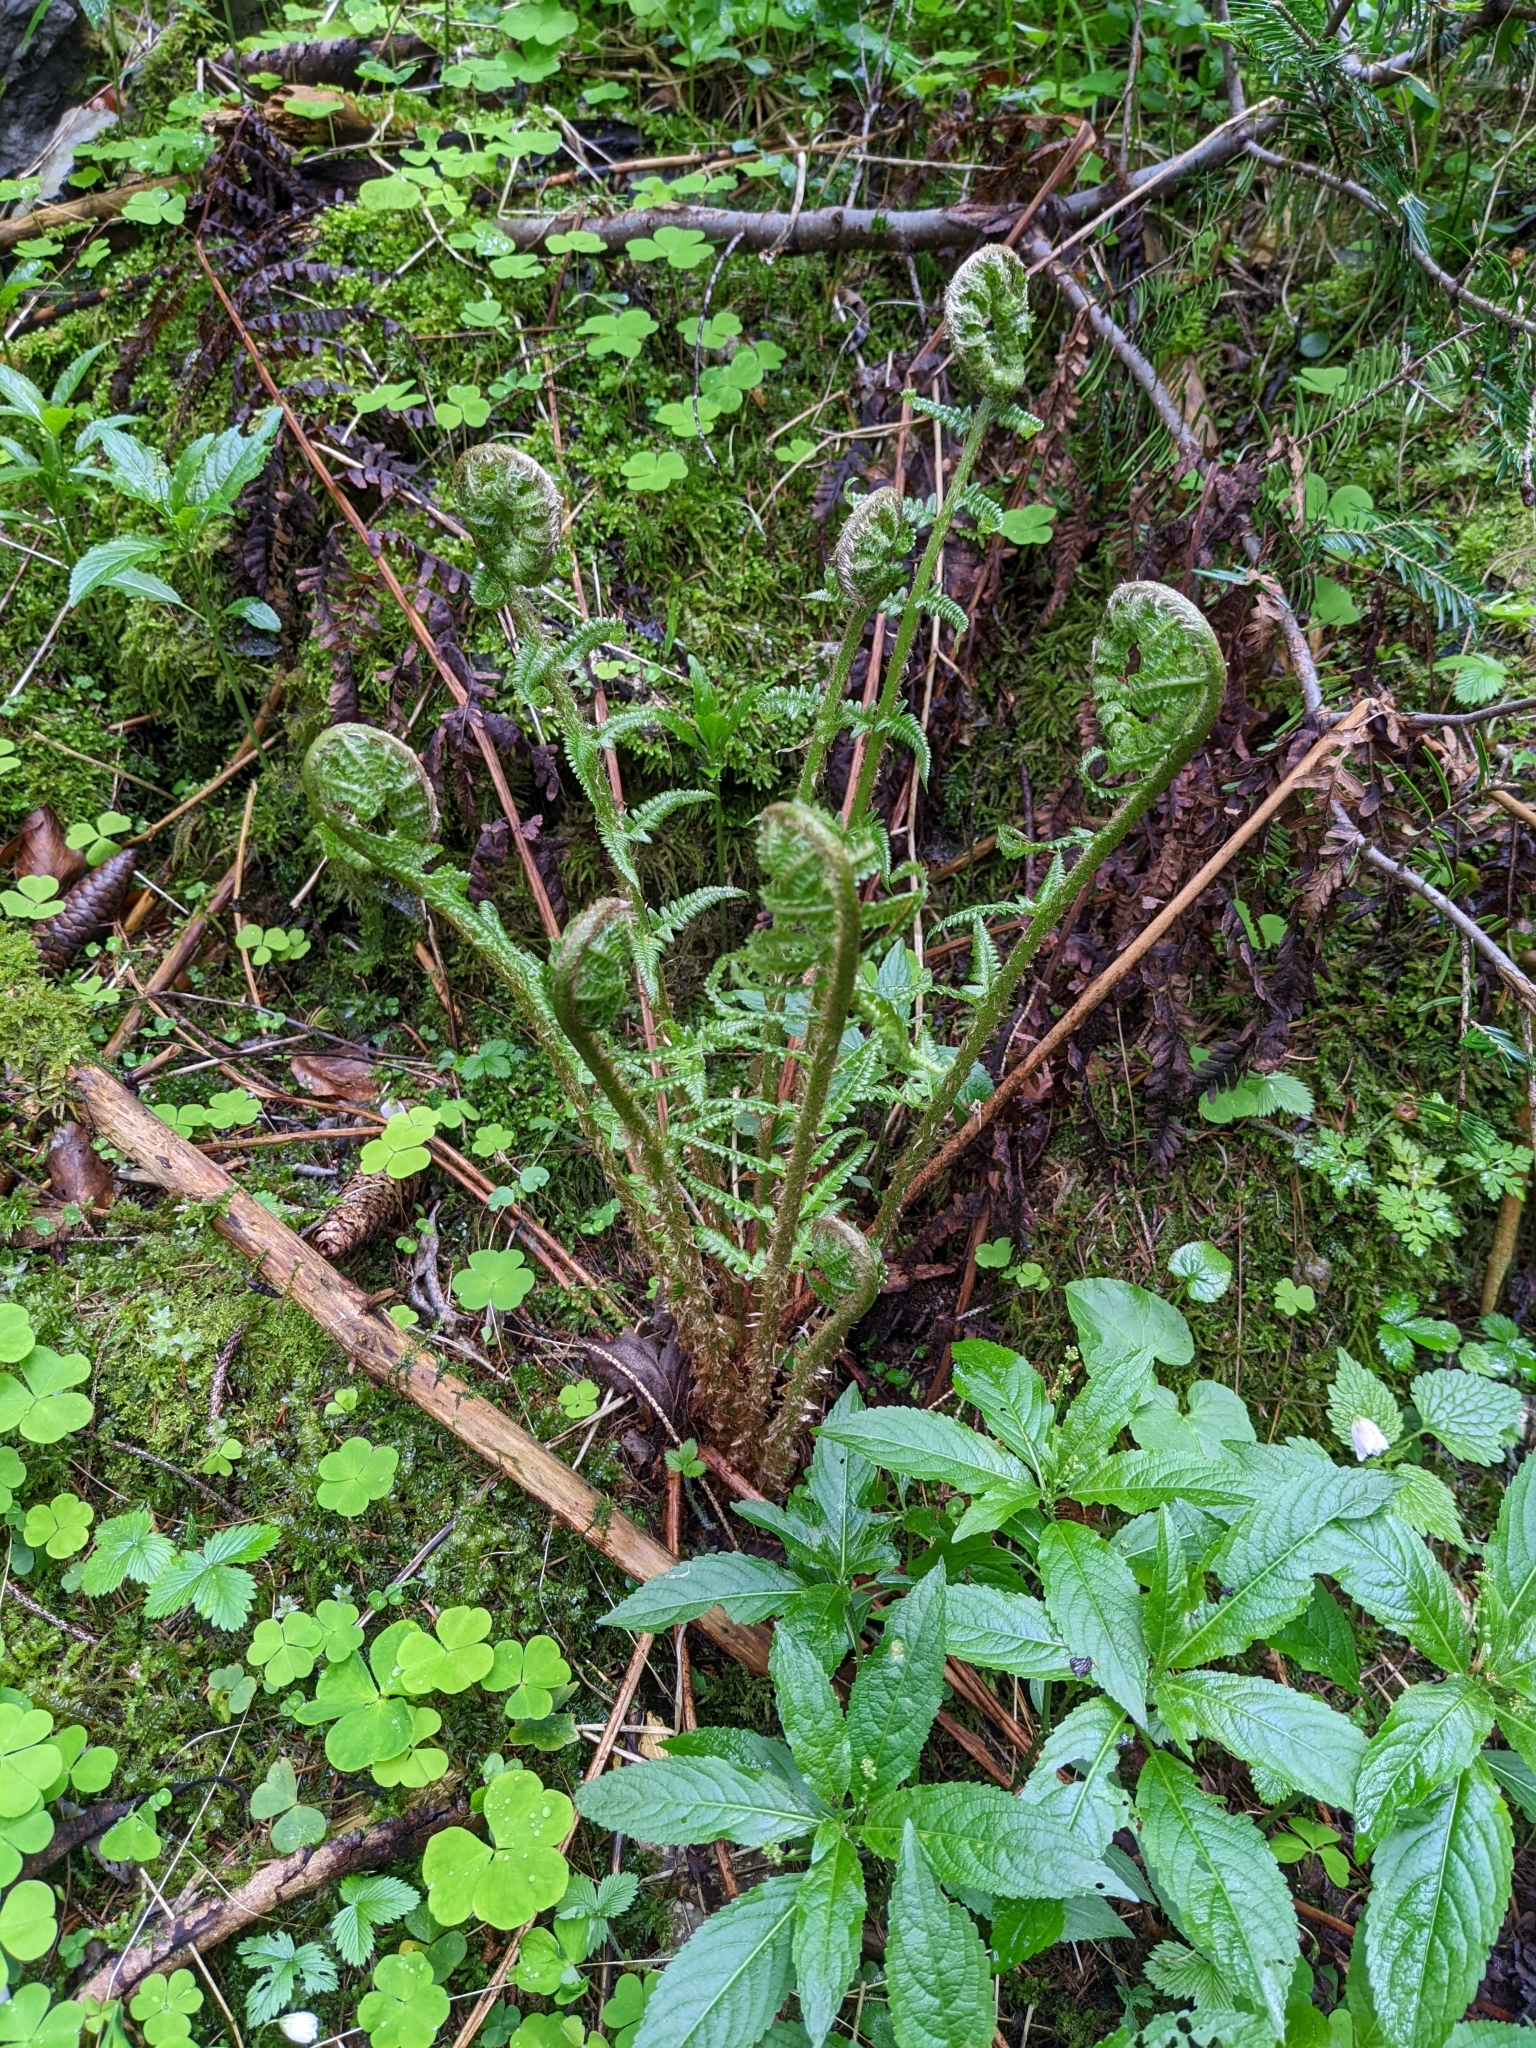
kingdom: Plantae
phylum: Tracheophyta
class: Polypodiopsida
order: Polypodiales
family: Dryopteridaceae
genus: Dryopteris
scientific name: Dryopteris filix-mas
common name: Male fern
